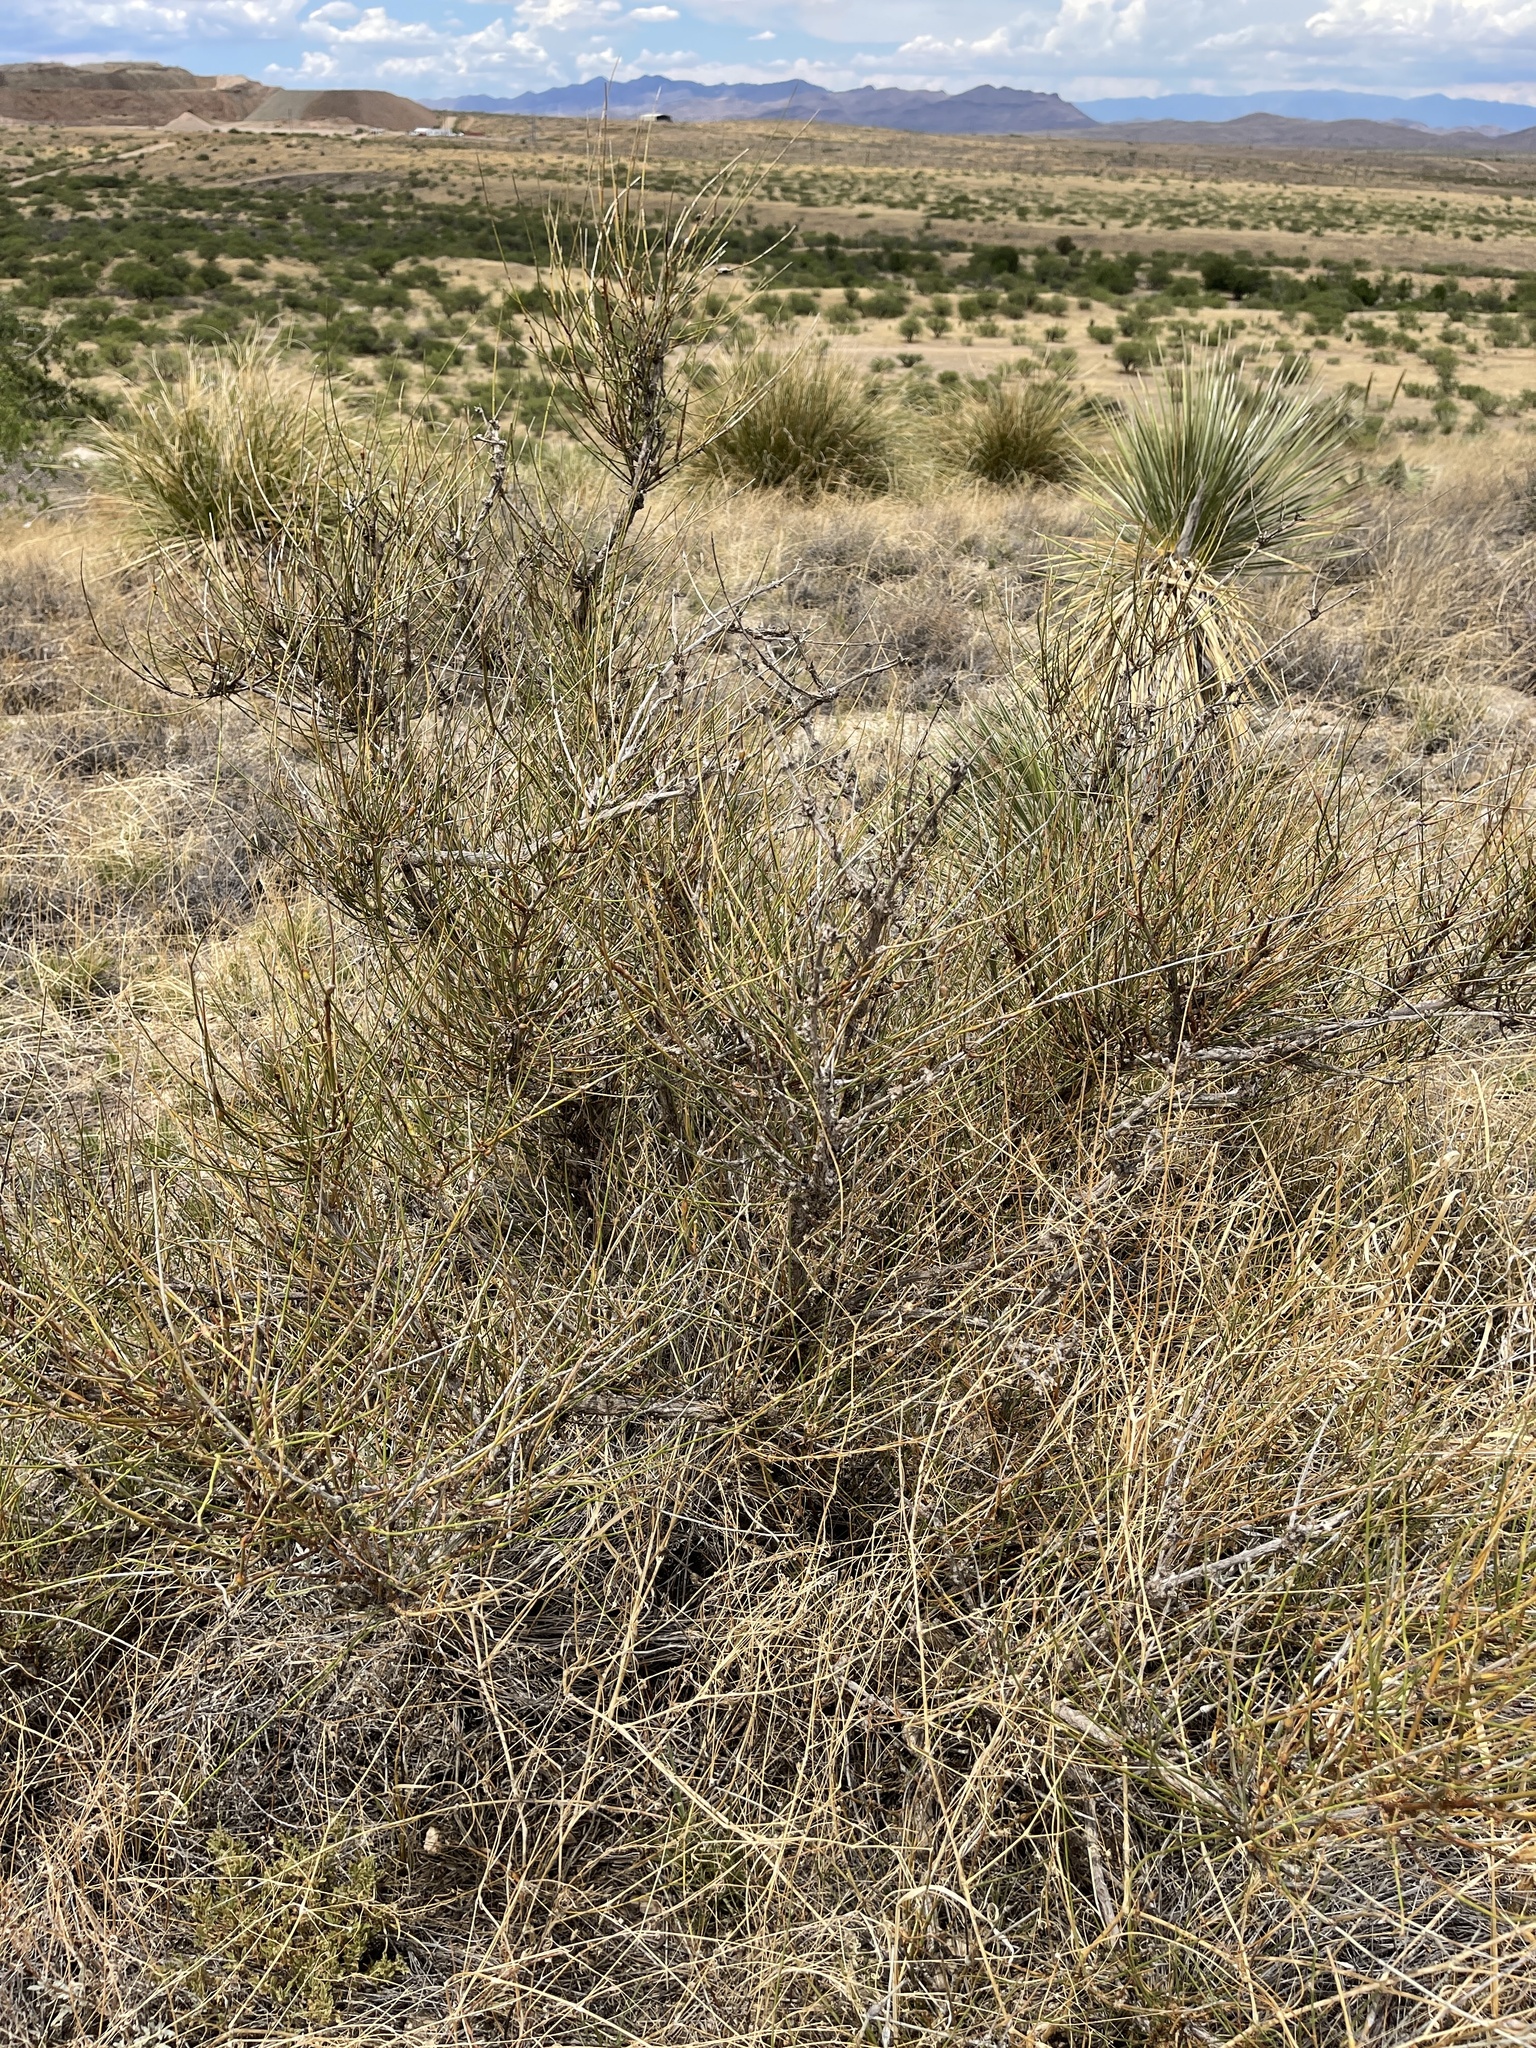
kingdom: Plantae
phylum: Tracheophyta
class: Gnetopsida
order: Ephedrales
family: Ephedraceae
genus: Ephedra
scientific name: Ephedra trifurca
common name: Mexican-tea
